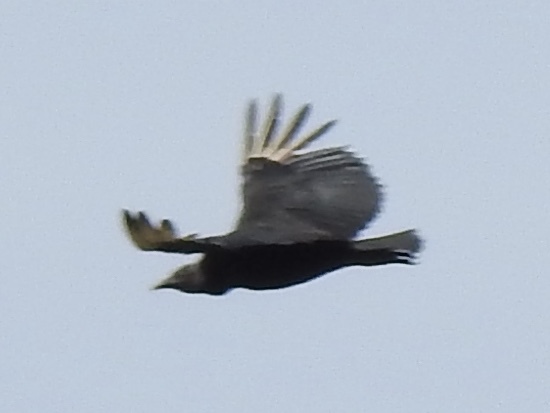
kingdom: Animalia
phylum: Chordata
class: Aves
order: Accipitriformes
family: Cathartidae
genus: Coragyps
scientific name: Coragyps atratus
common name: Black vulture
